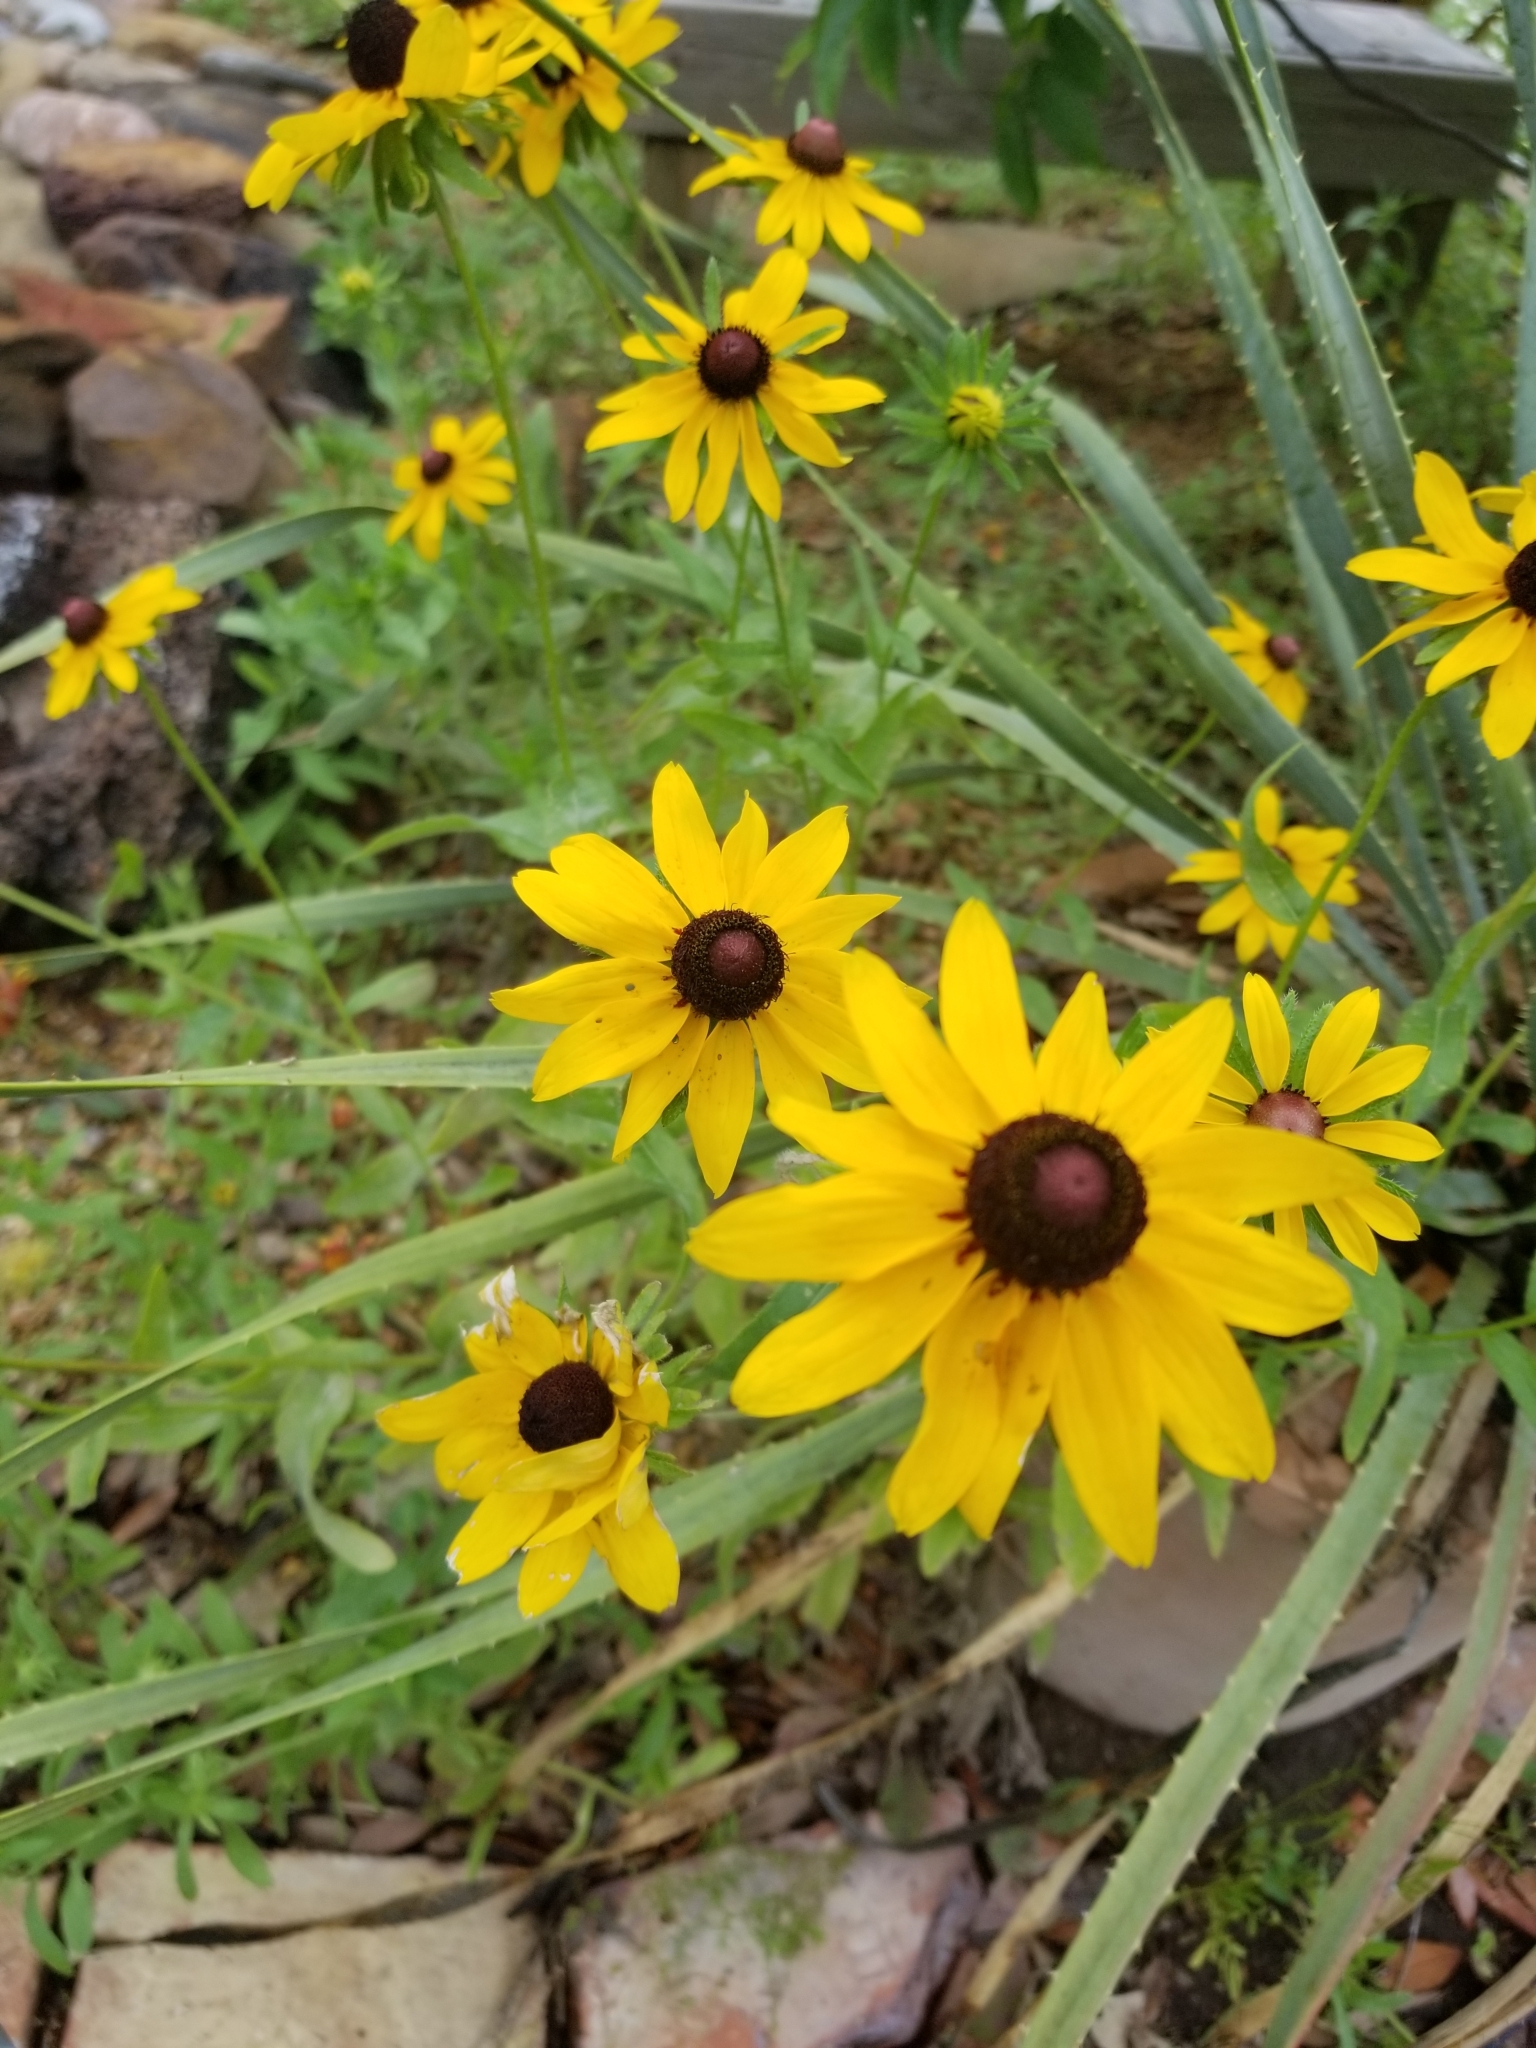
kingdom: Plantae
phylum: Tracheophyta
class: Magnoliopsida
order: Asterales
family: Asteraceae
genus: Rudbeckia
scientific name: Rudbeckia hirta
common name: Black-eyed-susan
